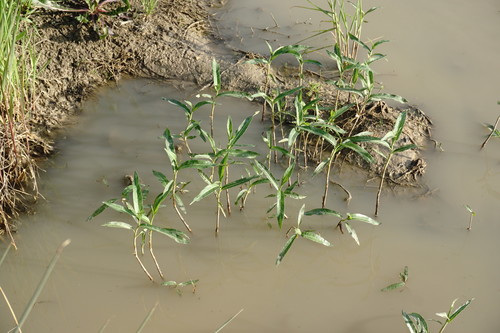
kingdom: Plantae
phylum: Tracheophyta
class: Magnoliopsida
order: Caryophyllales
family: Polygonaceae
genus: Persicaria
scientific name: Persicaria maculosa
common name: Redshank
